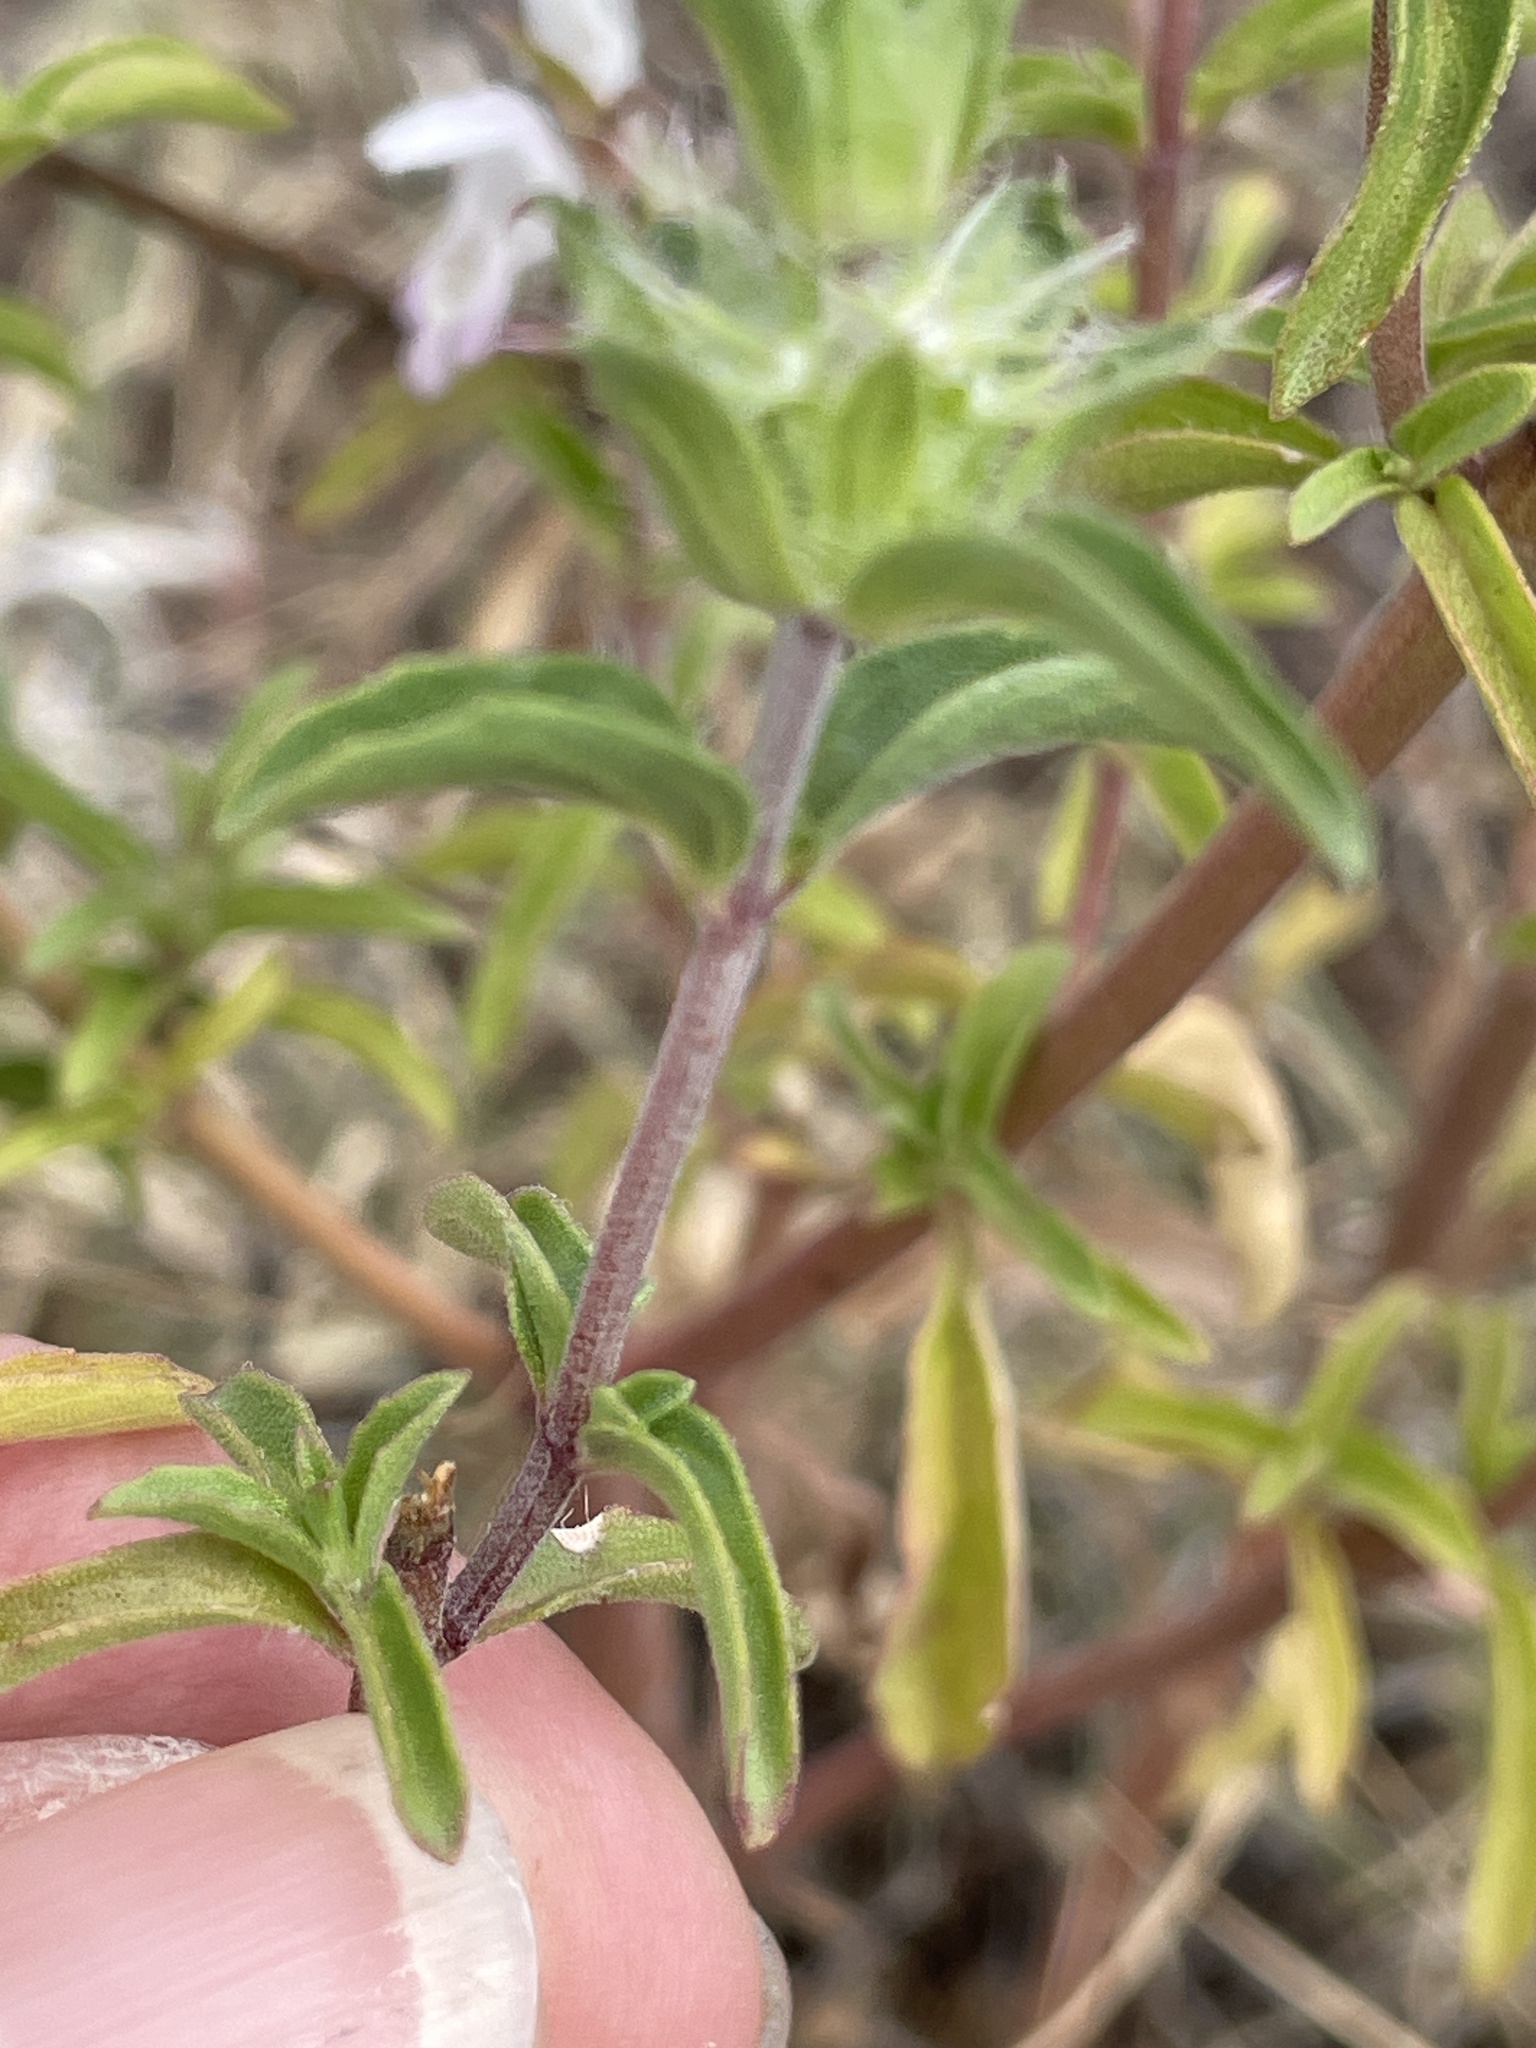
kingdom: Plantae
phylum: Tracheophyta
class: Magnoliopsida
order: Lamiales
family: Lamiaceae
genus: Monarda
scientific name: Monarda pectinata
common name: Plains beebalm
